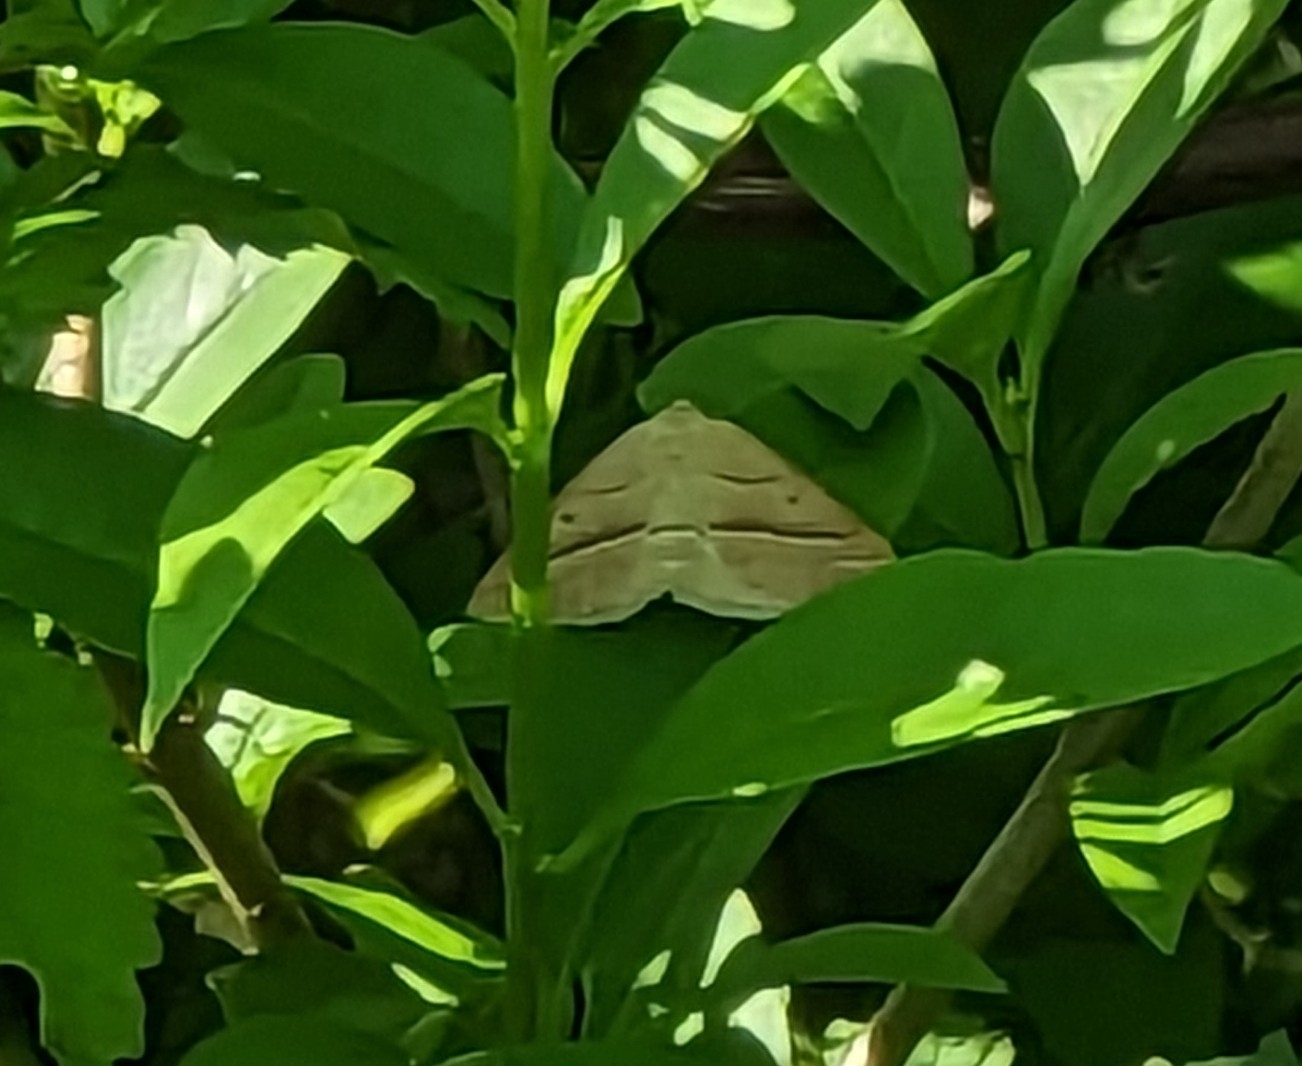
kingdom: Animalia
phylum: Arthropoda
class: Insecta
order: Lepidoptera
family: Pterophoridae
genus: Pterophorus
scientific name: Pterophorus Petrophora chlorosata
